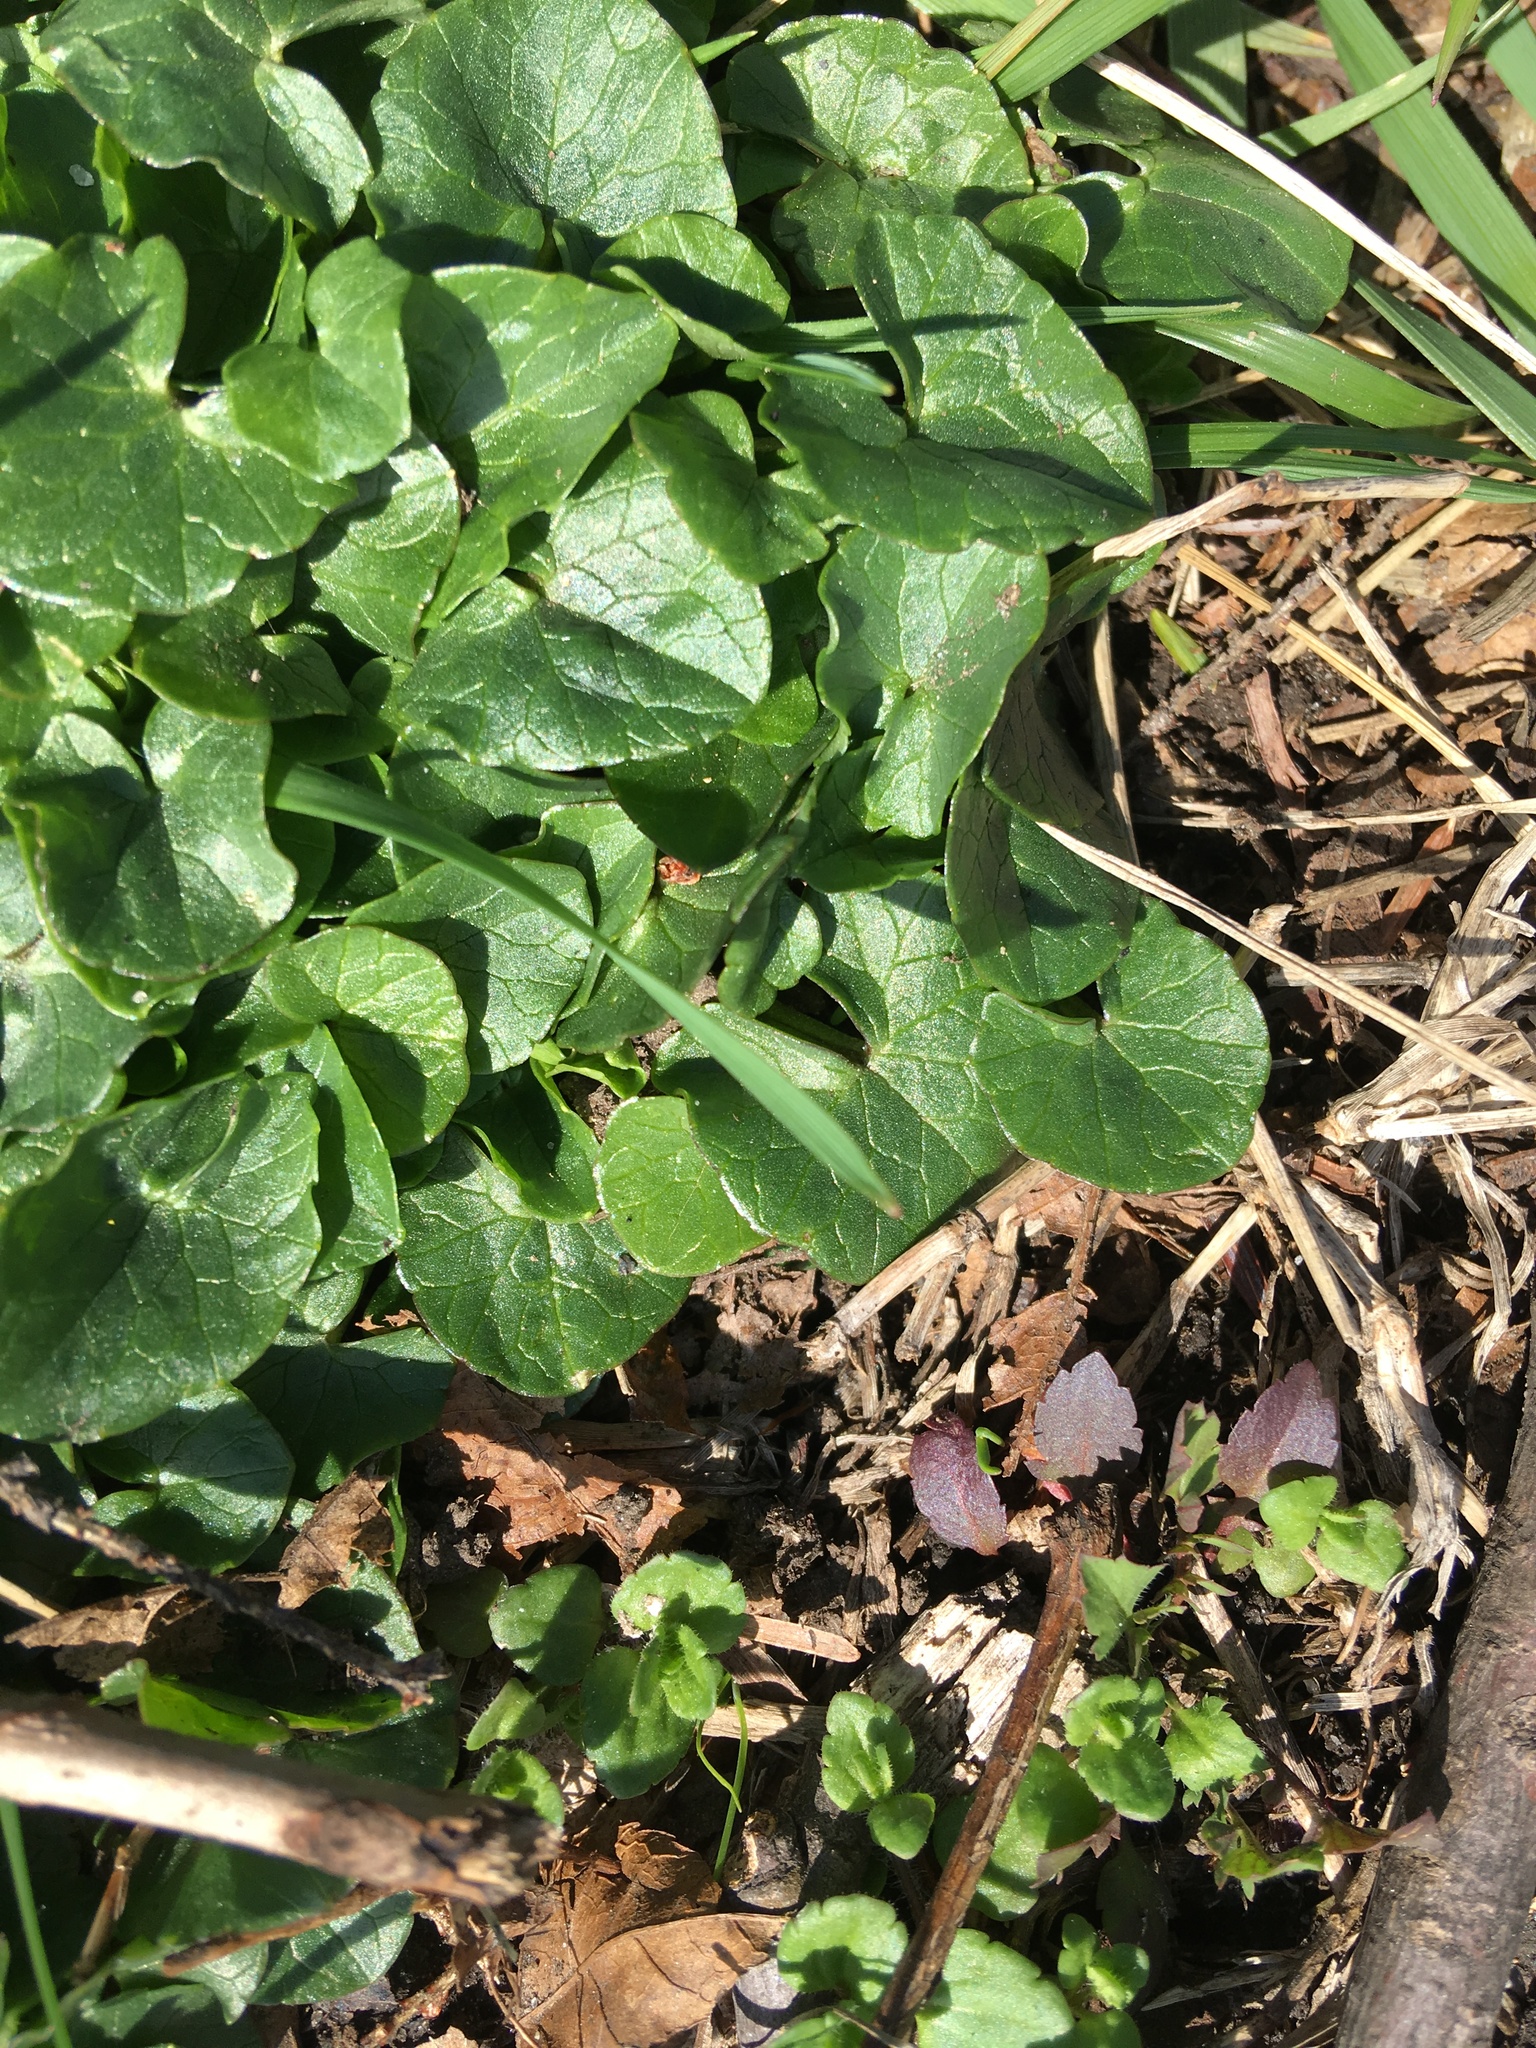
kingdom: Plantae
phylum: Tracheophyta
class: Magnoliopsida
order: Ranunculales
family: Ranunculaceae
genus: Ficaria
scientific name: Ficaria verna
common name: Lesser celandine
